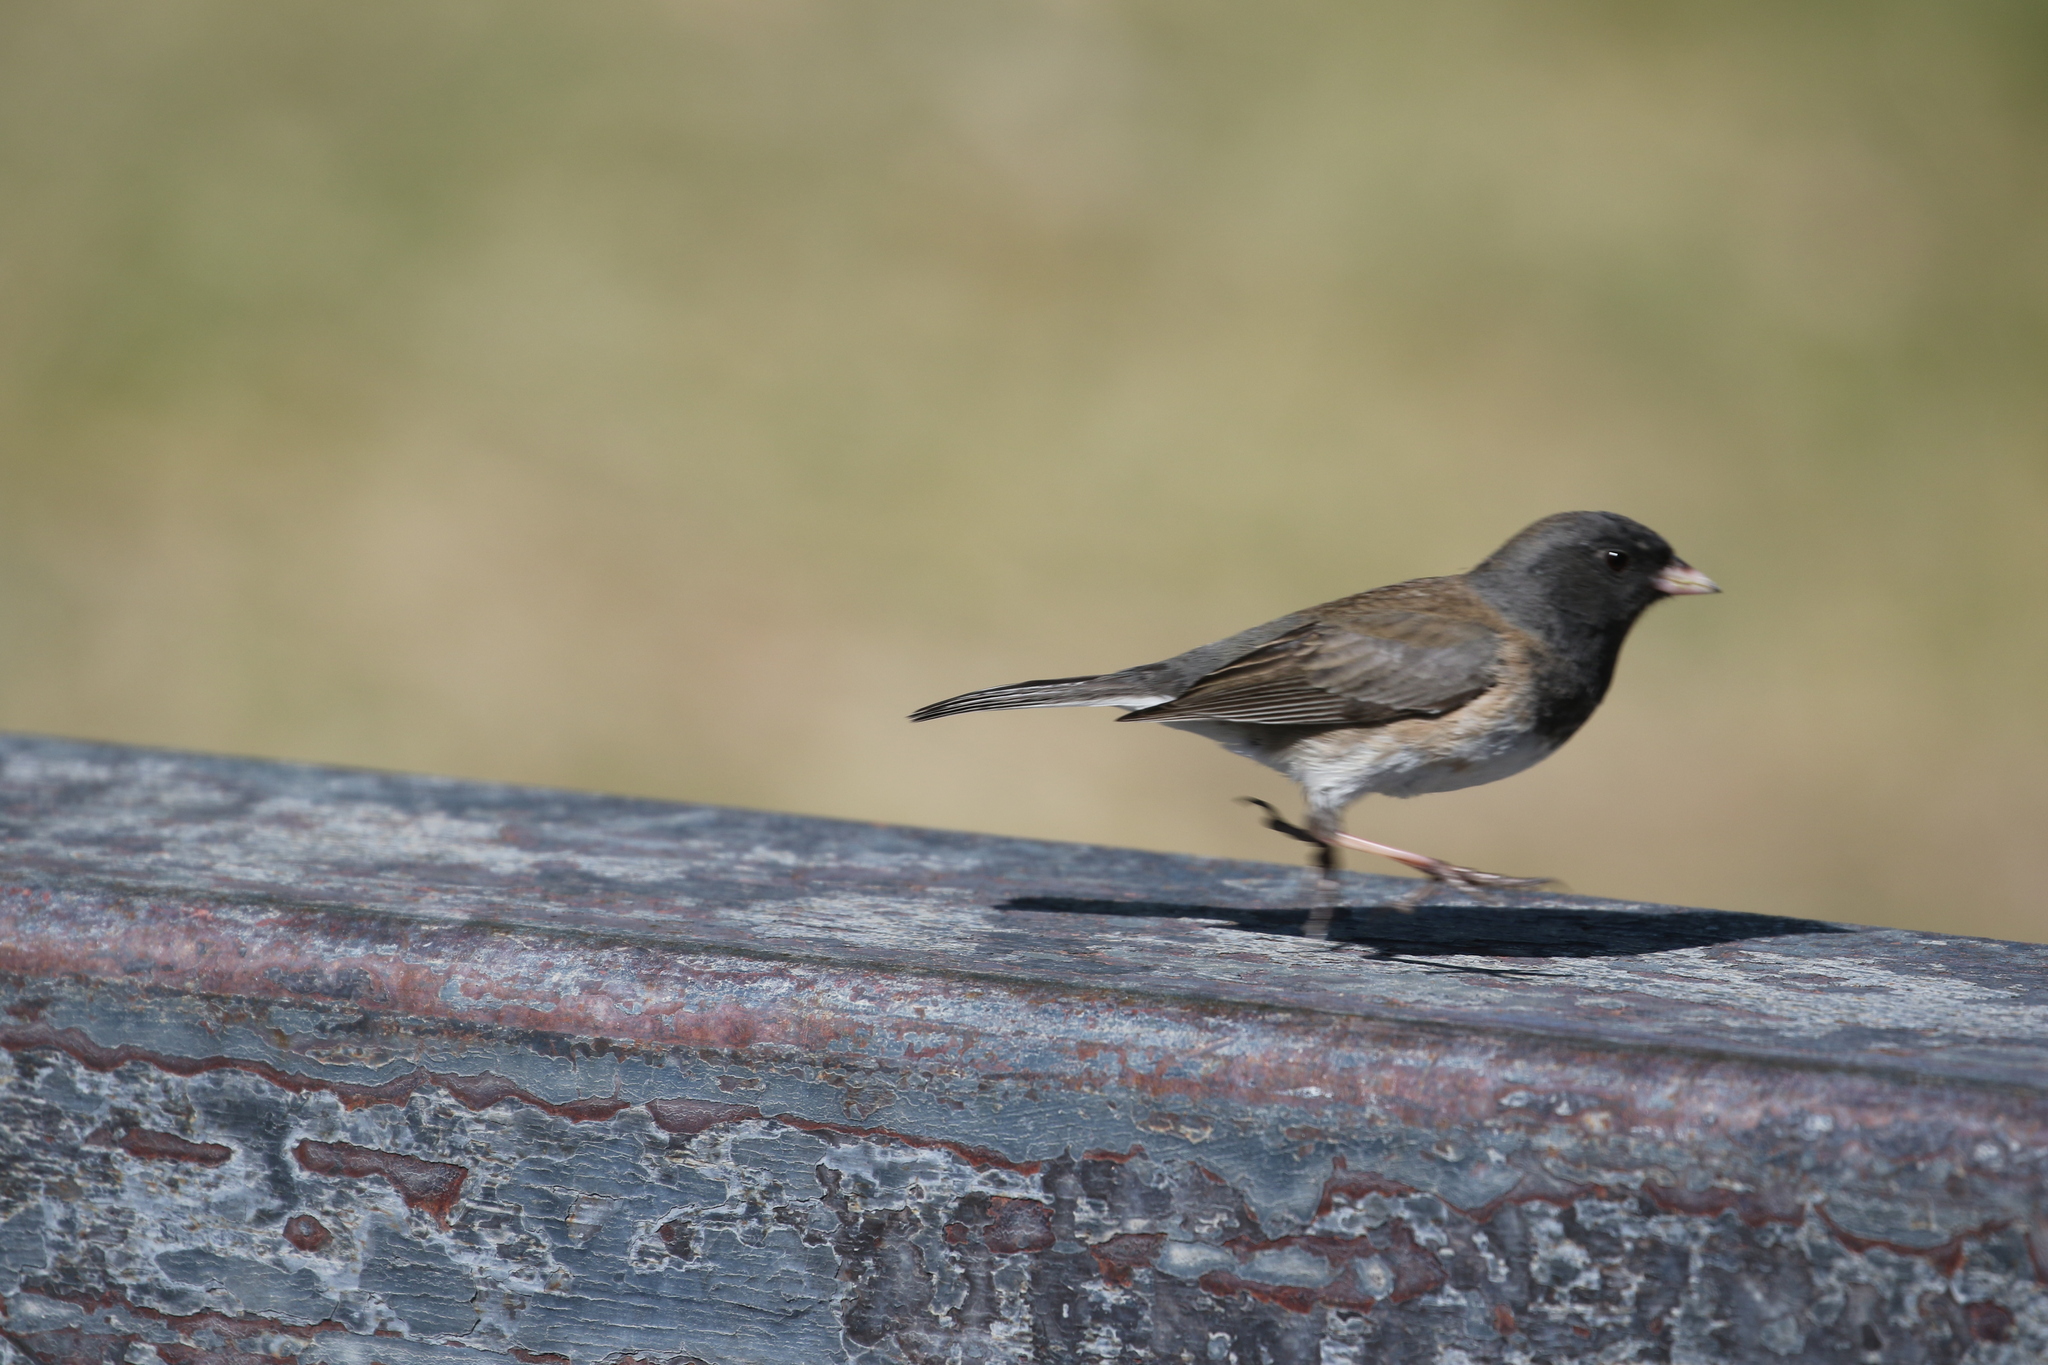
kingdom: Animalia
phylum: Chordata
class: Aves
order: Passeriformes
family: Passerellidae
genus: Junco
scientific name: Junco hyemalis
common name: Dark-eyed junco
